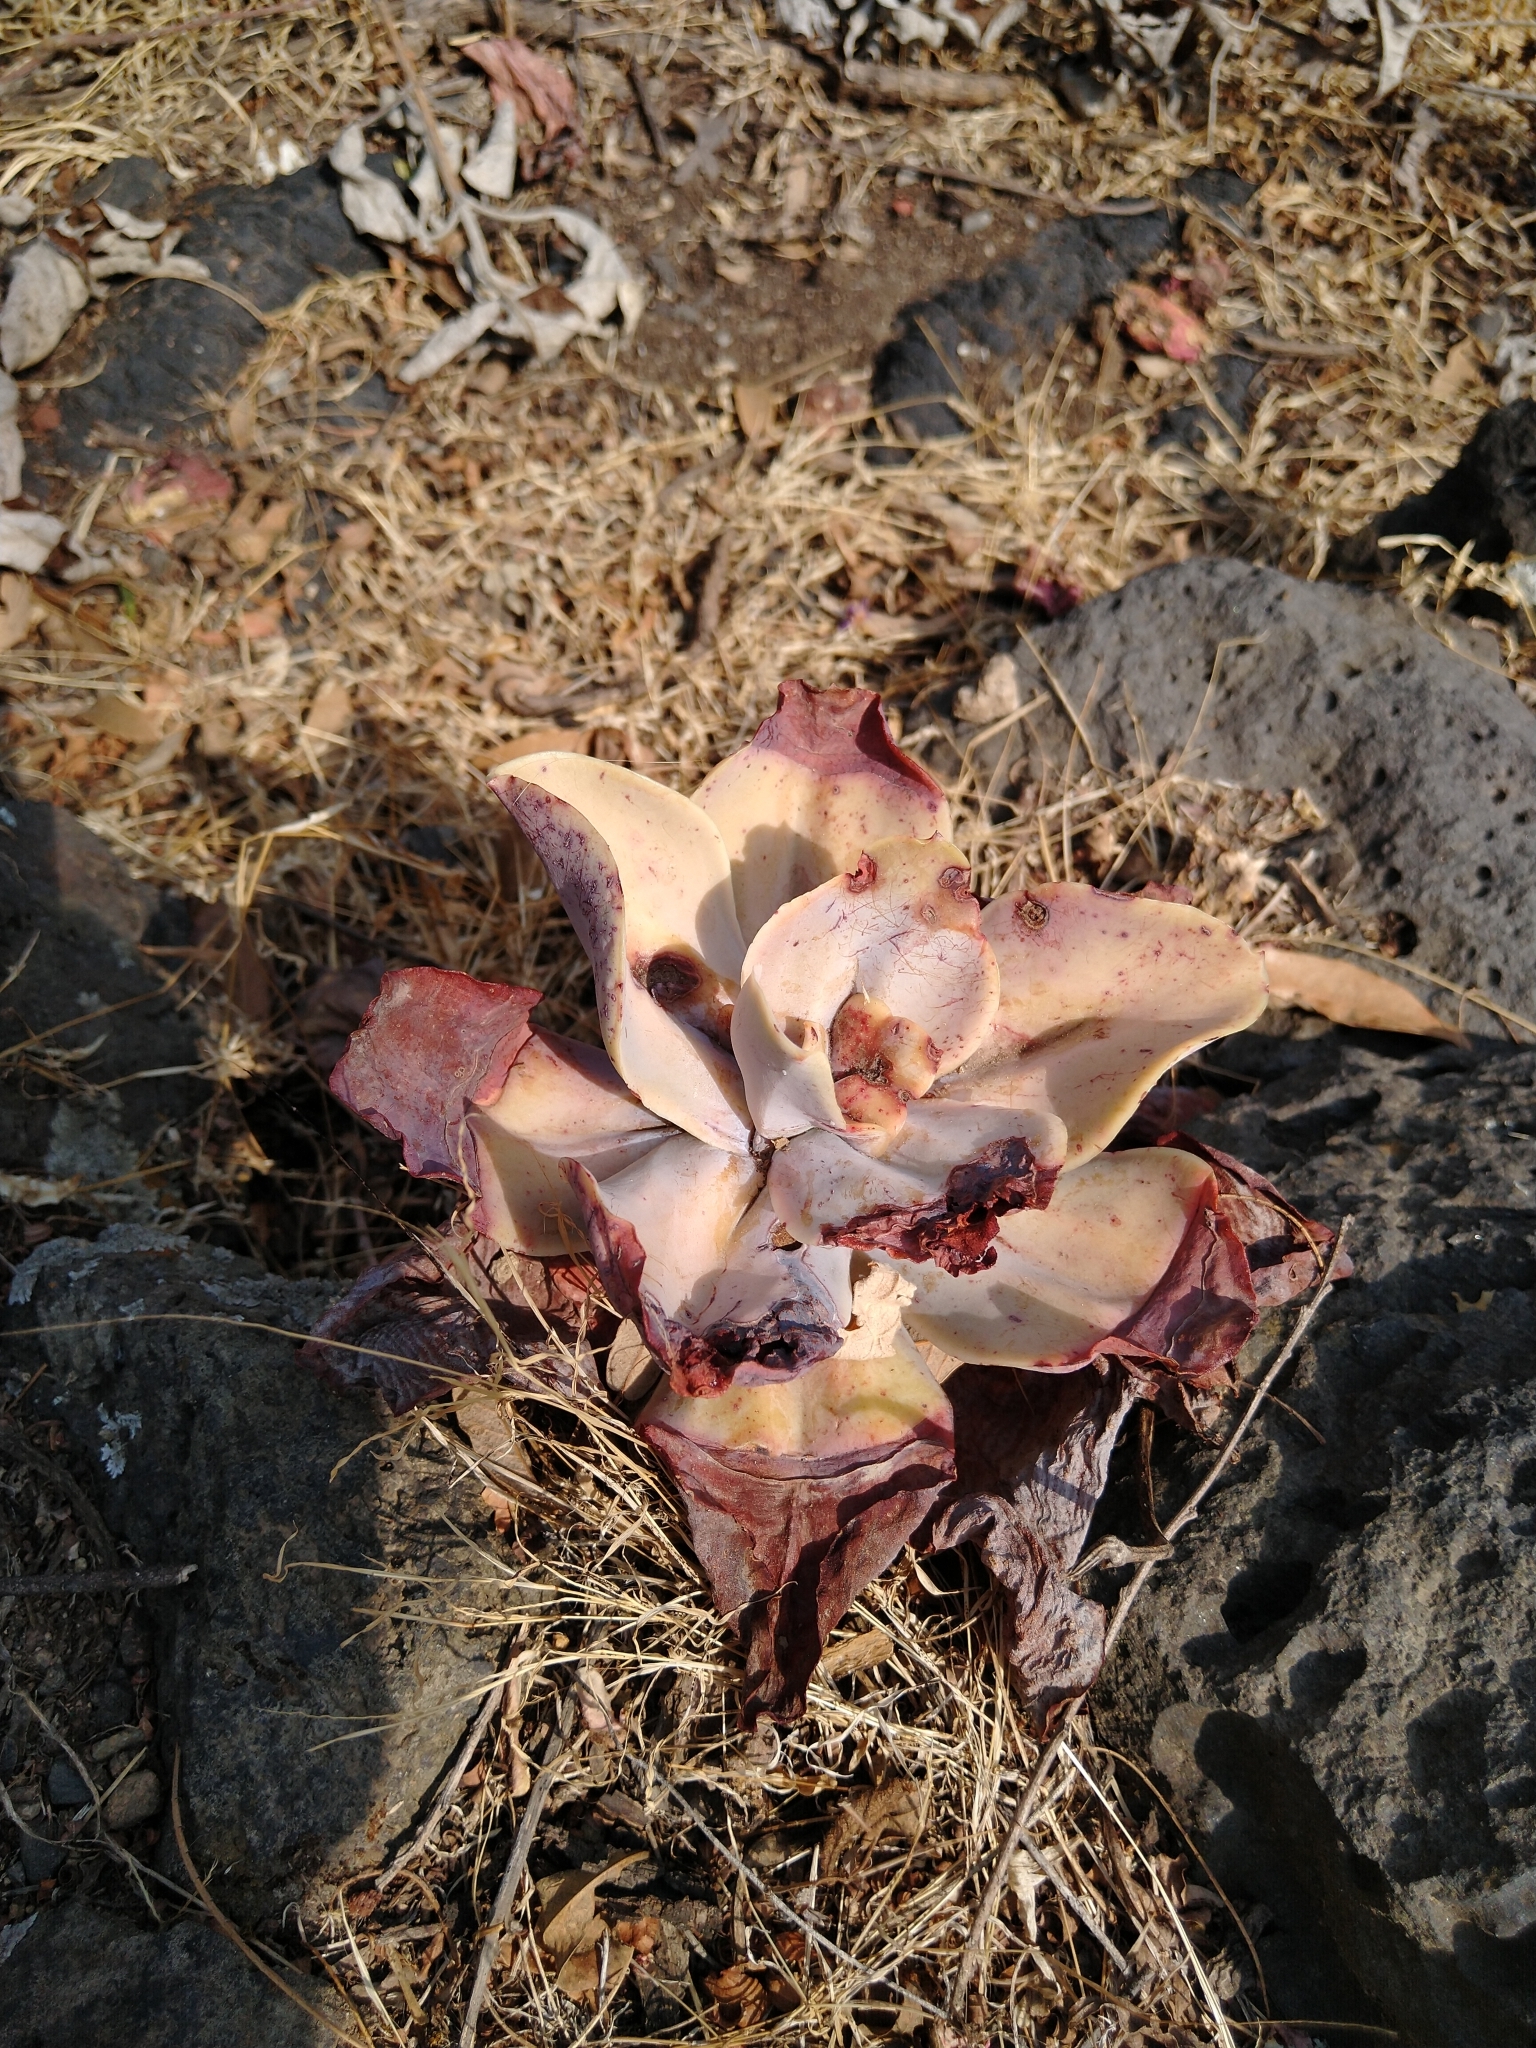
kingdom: Plantae
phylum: Tracheophyta
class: Magnoliopsida
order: Saxifragales
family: Crassulaceae
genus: Echeveria
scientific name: Echeveria gibbiflora
